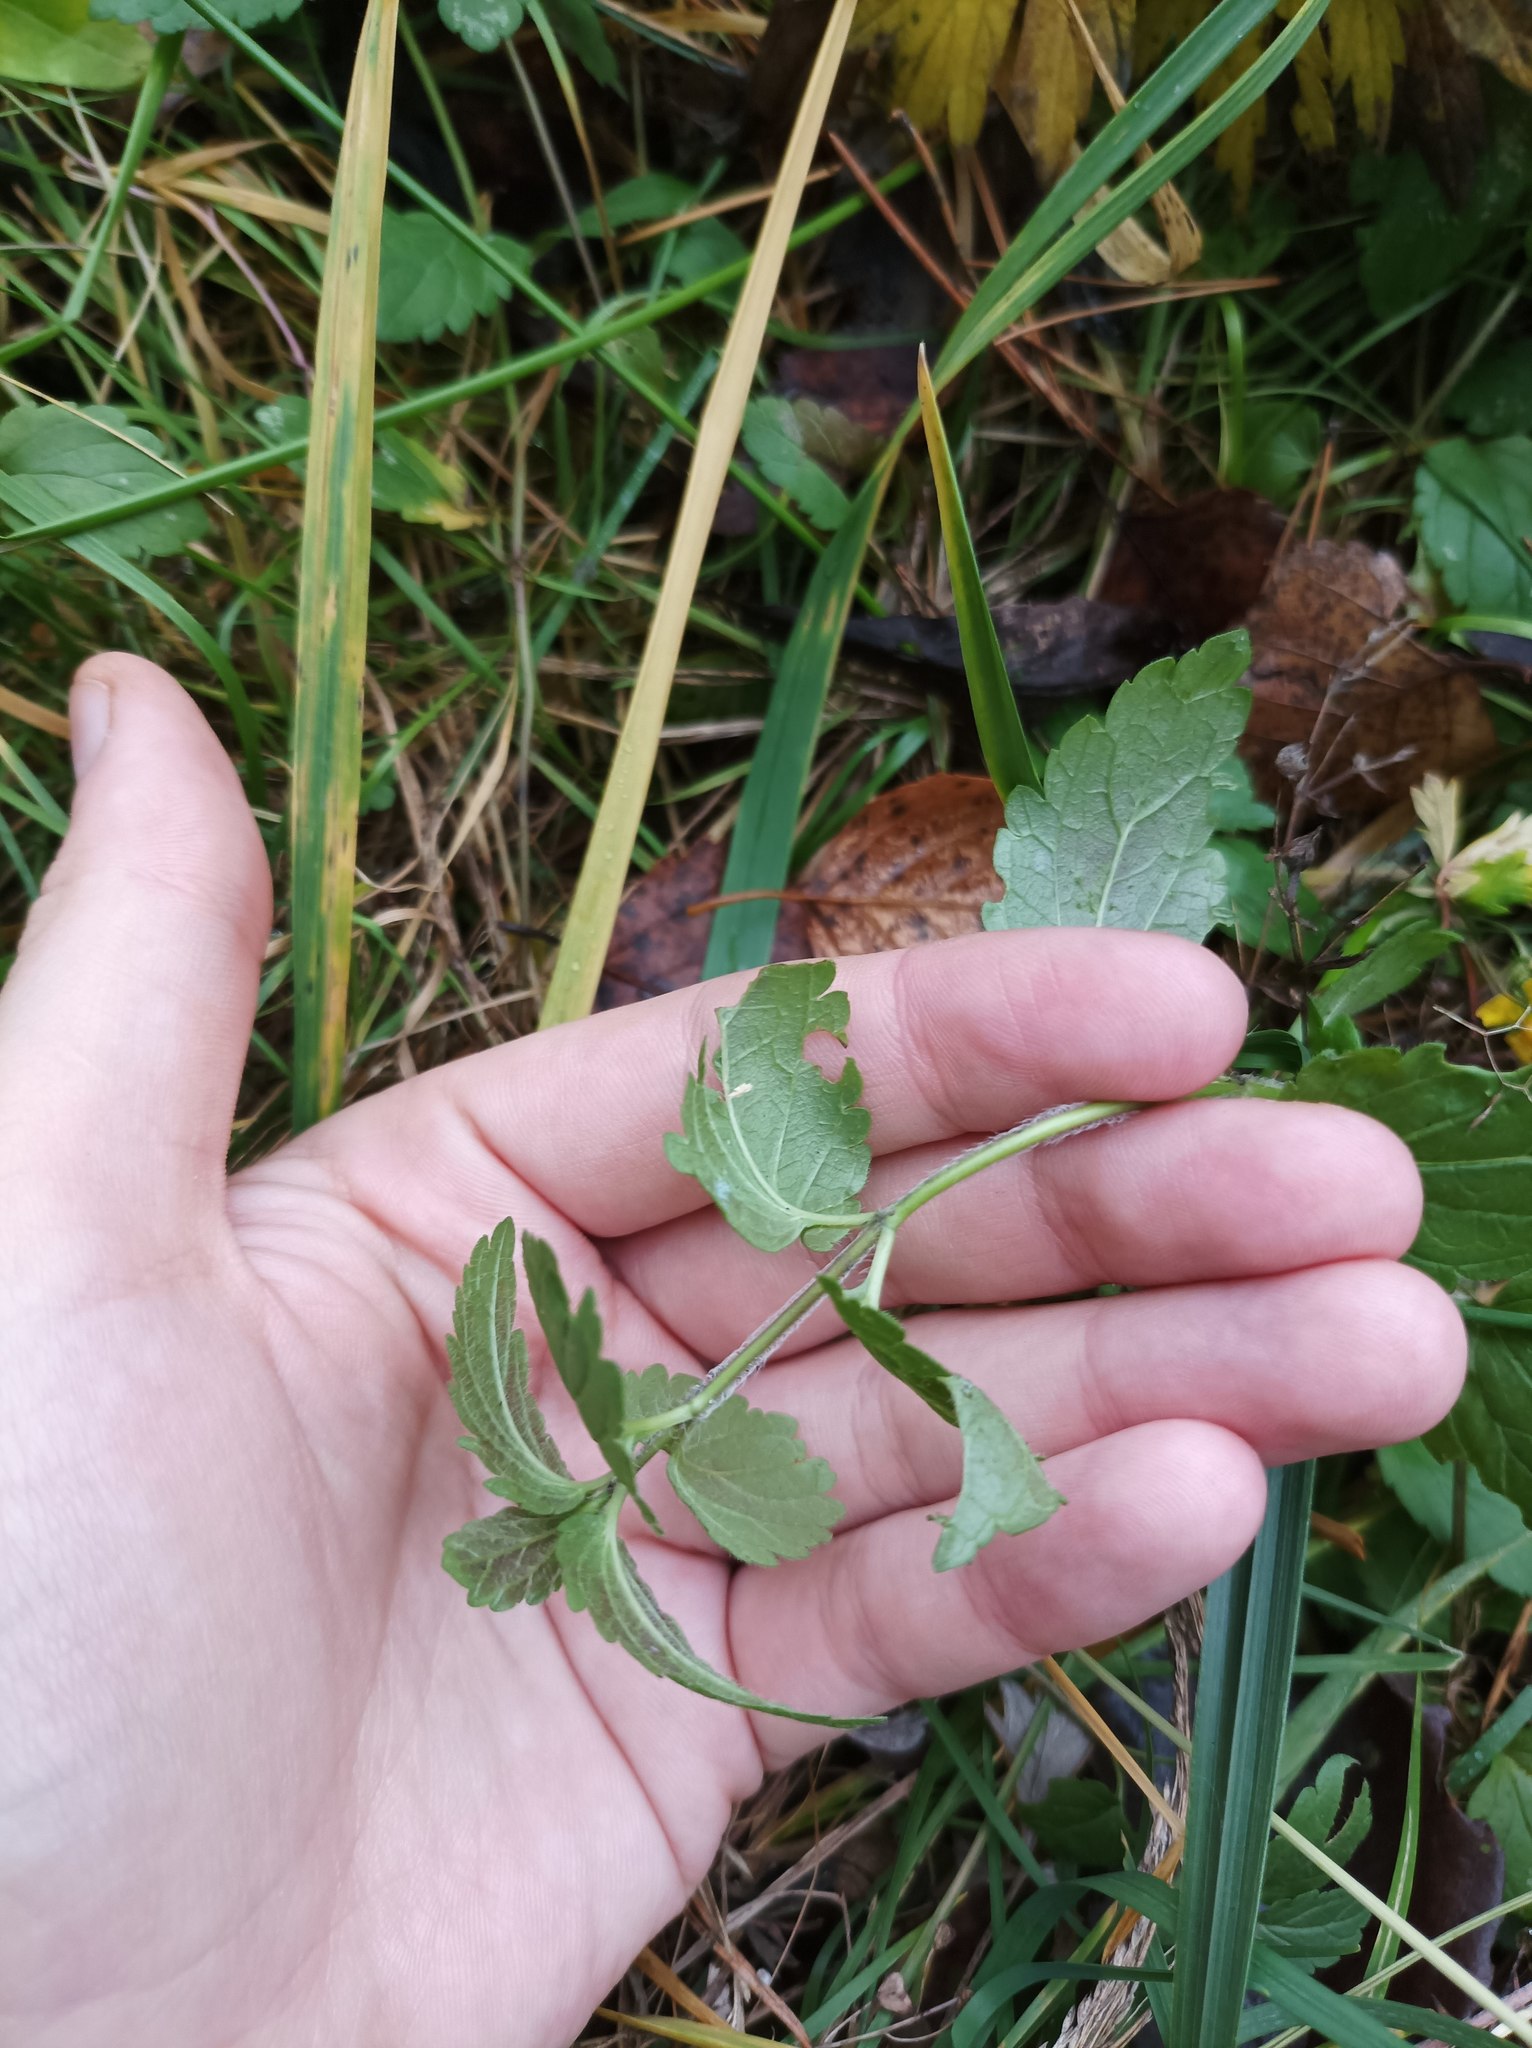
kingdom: Plantae
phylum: Tracheophyta
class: Magnoliopsida
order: Lamiales
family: Plantaginaceae
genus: Veronica
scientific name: Veronica chamaedrys
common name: Germander speedwell
